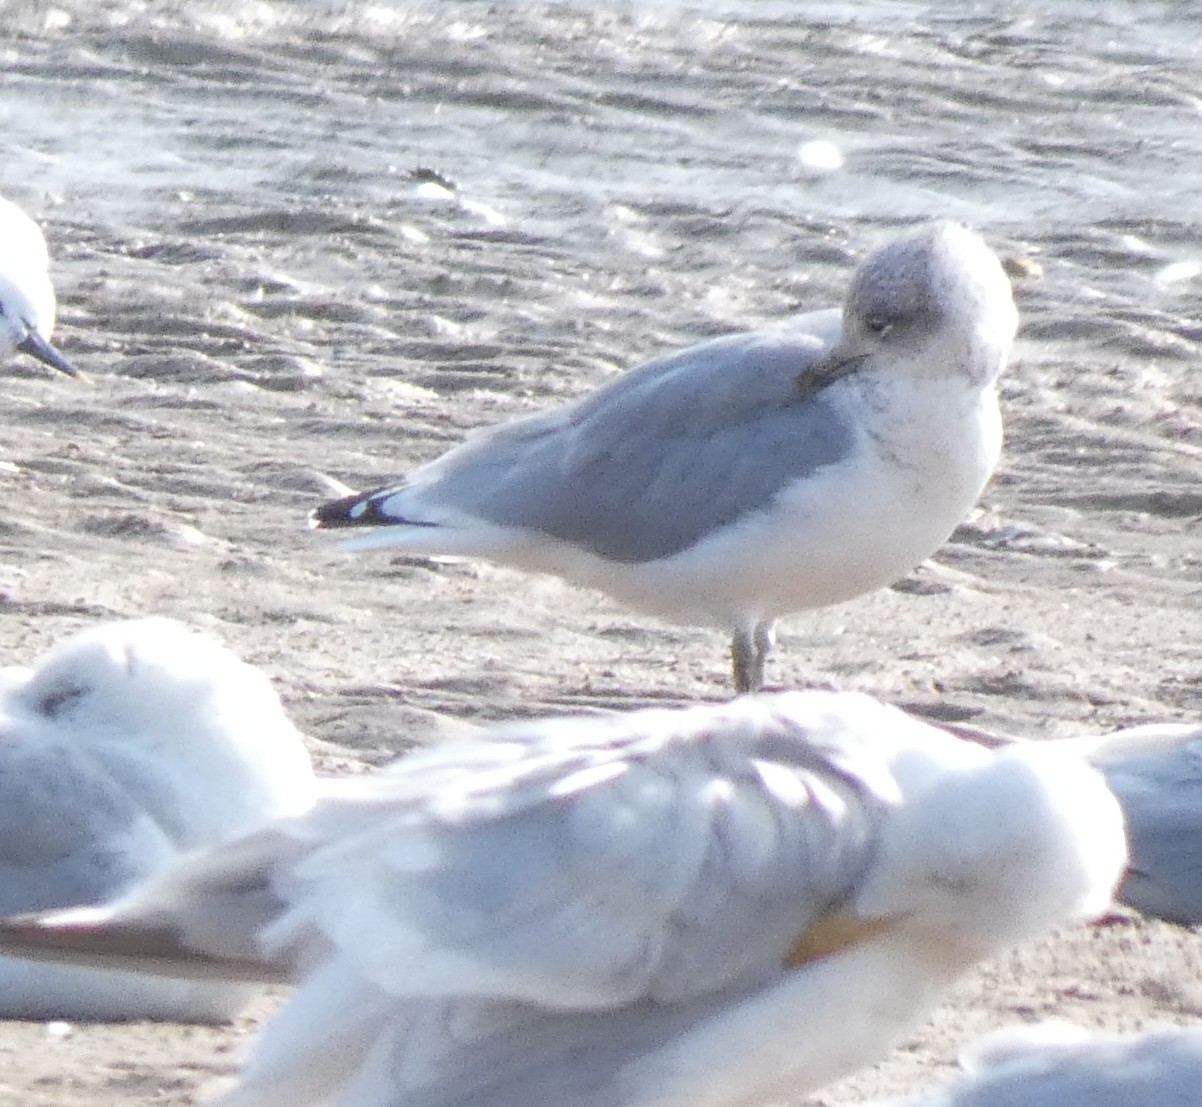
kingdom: Animalia
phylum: Chordata
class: Aves
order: Charadriiformes
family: Laridae
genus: Larus
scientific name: Larus argentatus
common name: Herring gull
